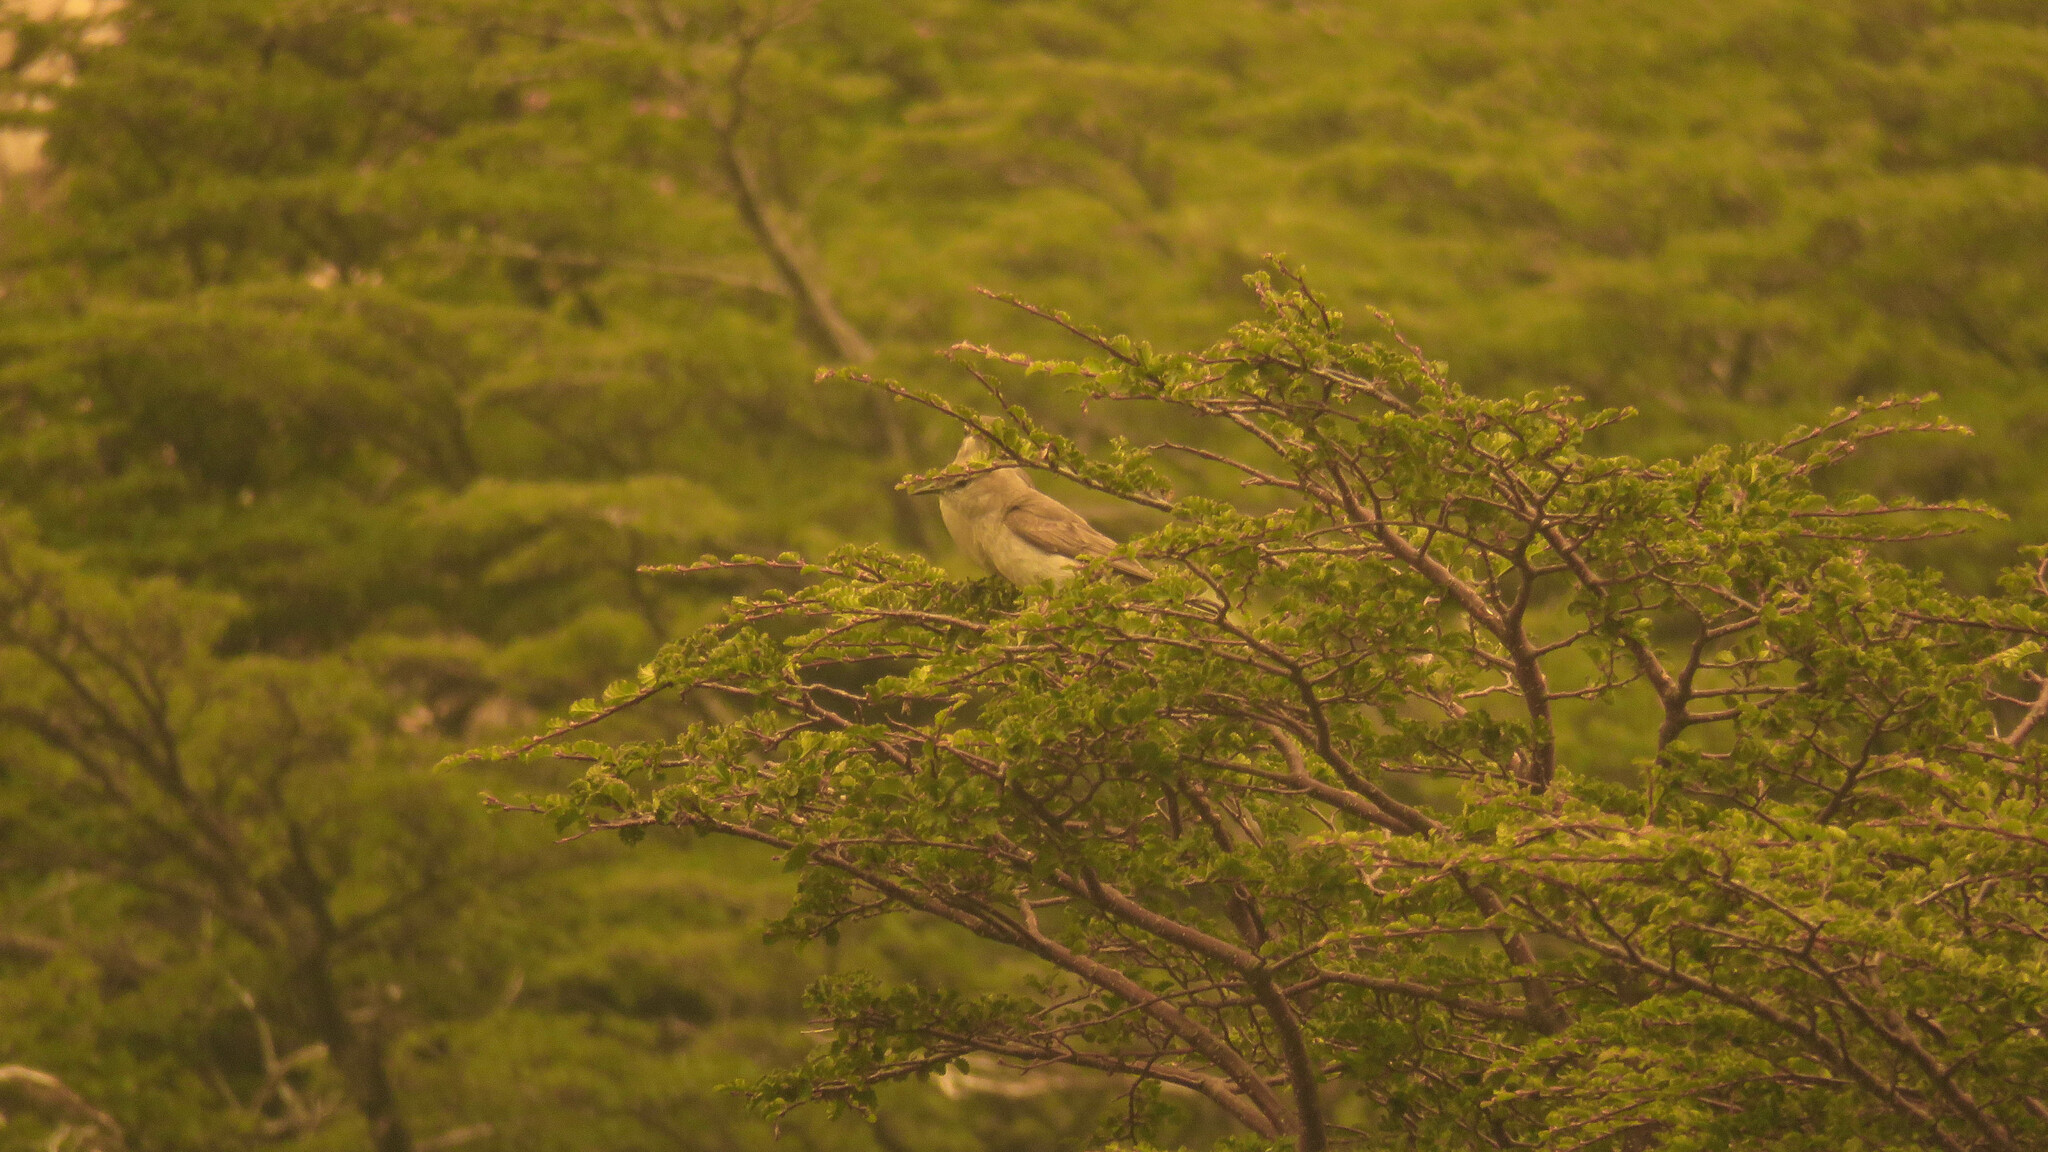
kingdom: Animalia
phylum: Chordata
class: Aves
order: Passeriformes
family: Tyrannidae
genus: Muscisaxicola
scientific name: Muscisaxicola albilora
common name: White-browed ground tyrant
